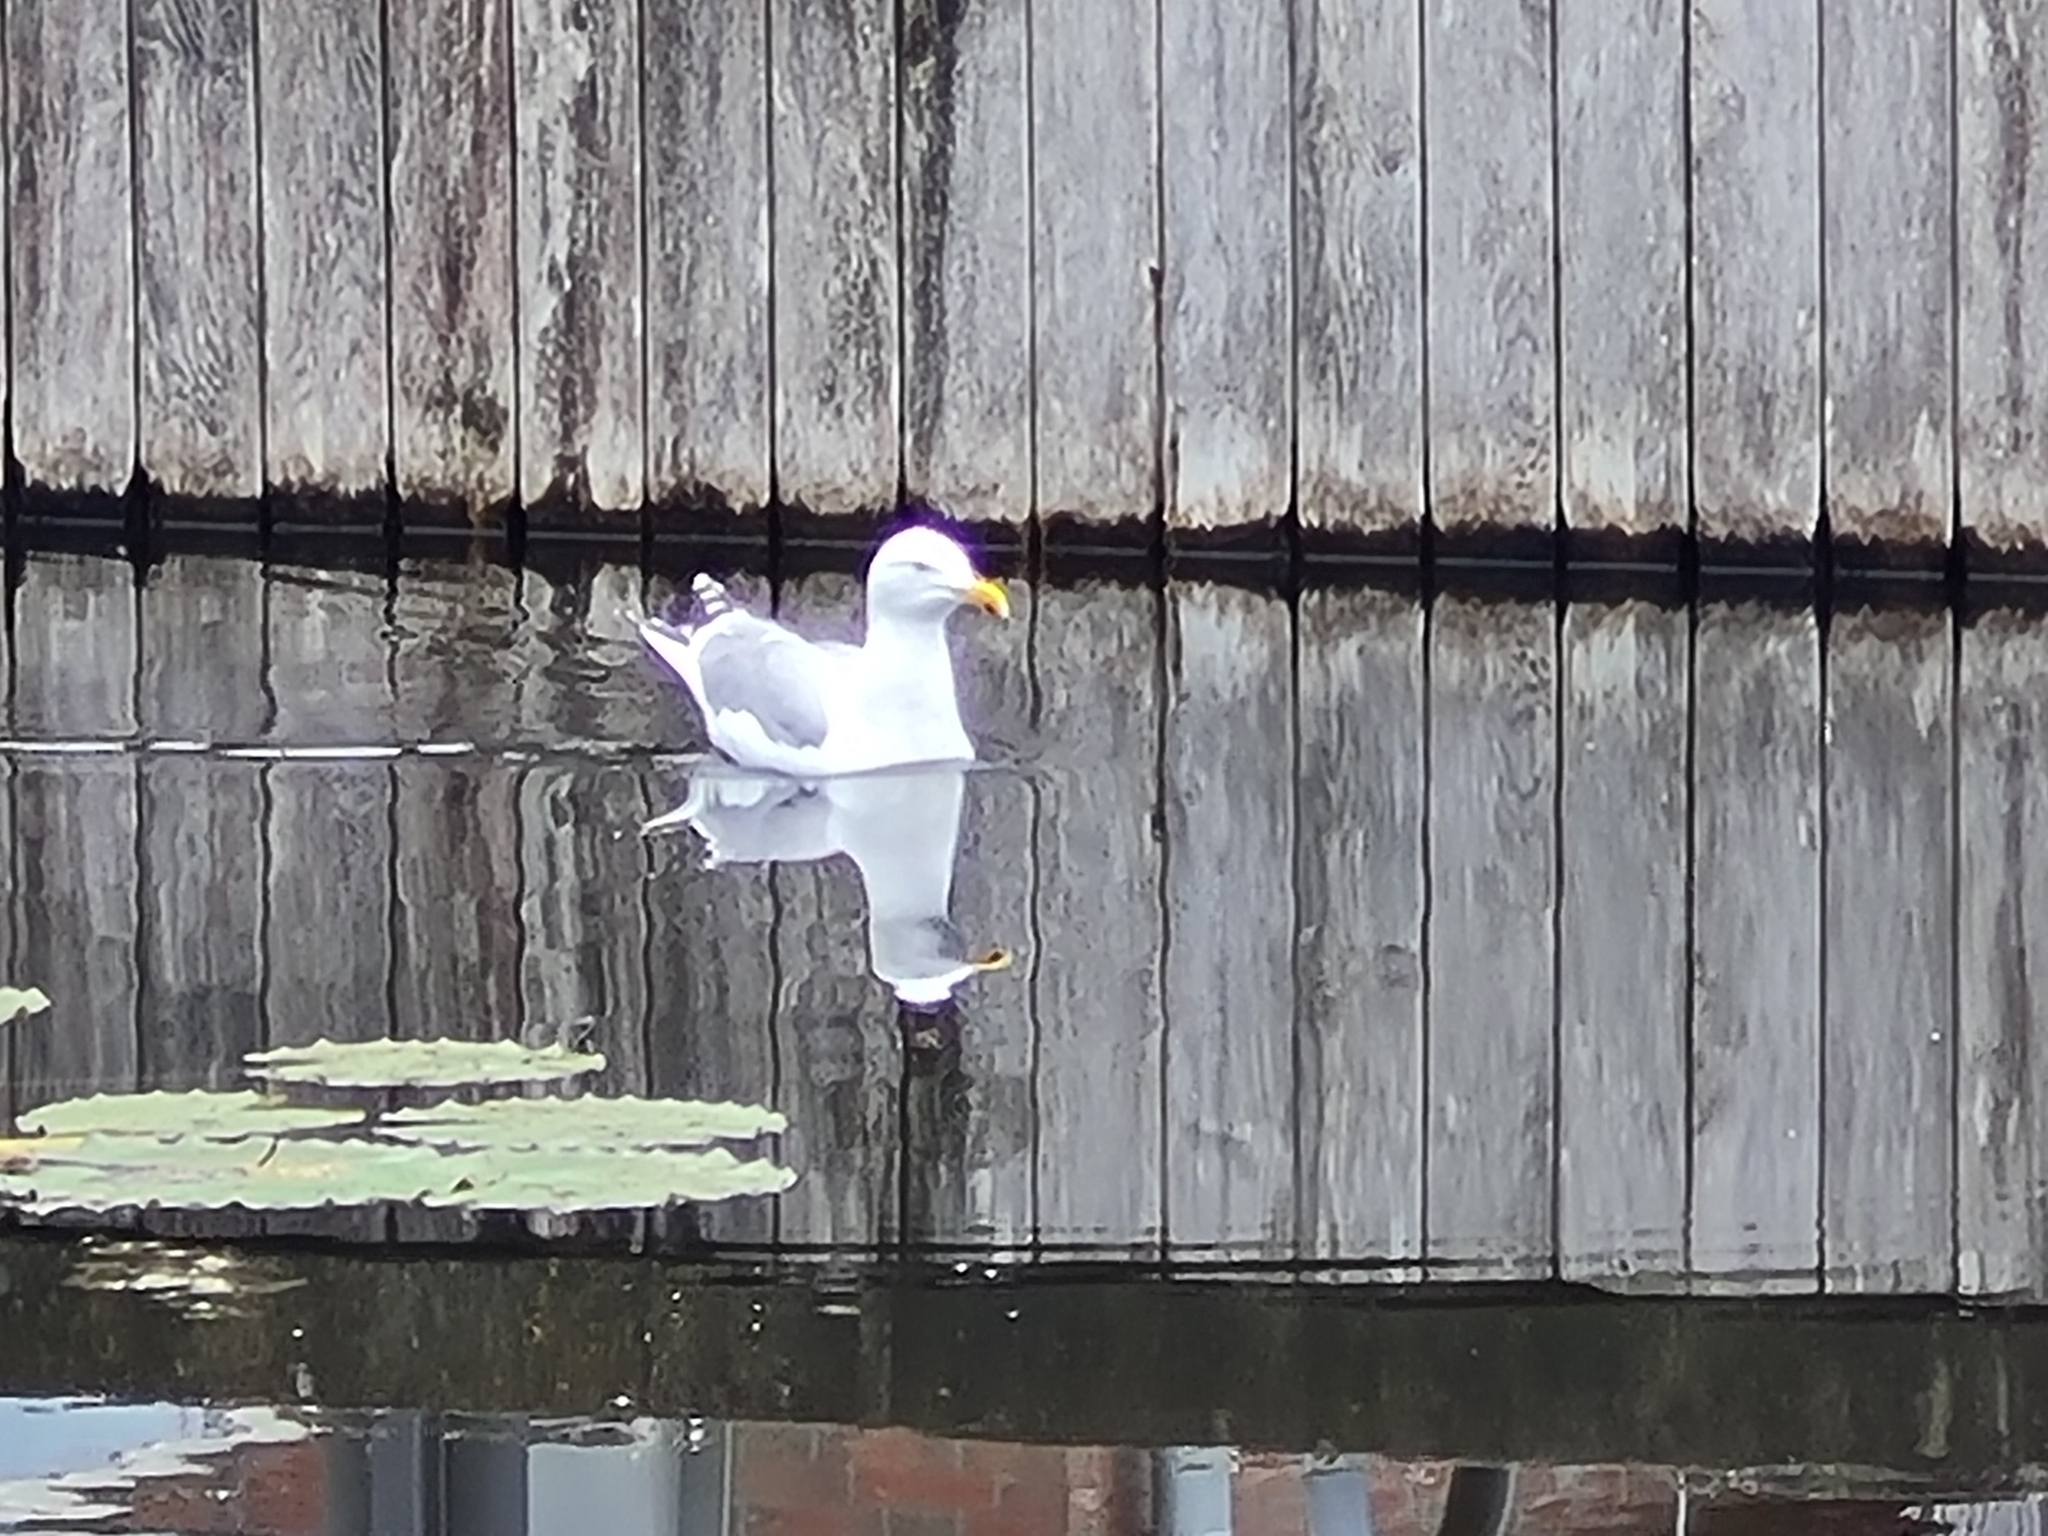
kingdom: Animalia
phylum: Chordata
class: Aves
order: Charadriiformes
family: Laridae
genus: Larus
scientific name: Larus argentatus
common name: Herring gull
